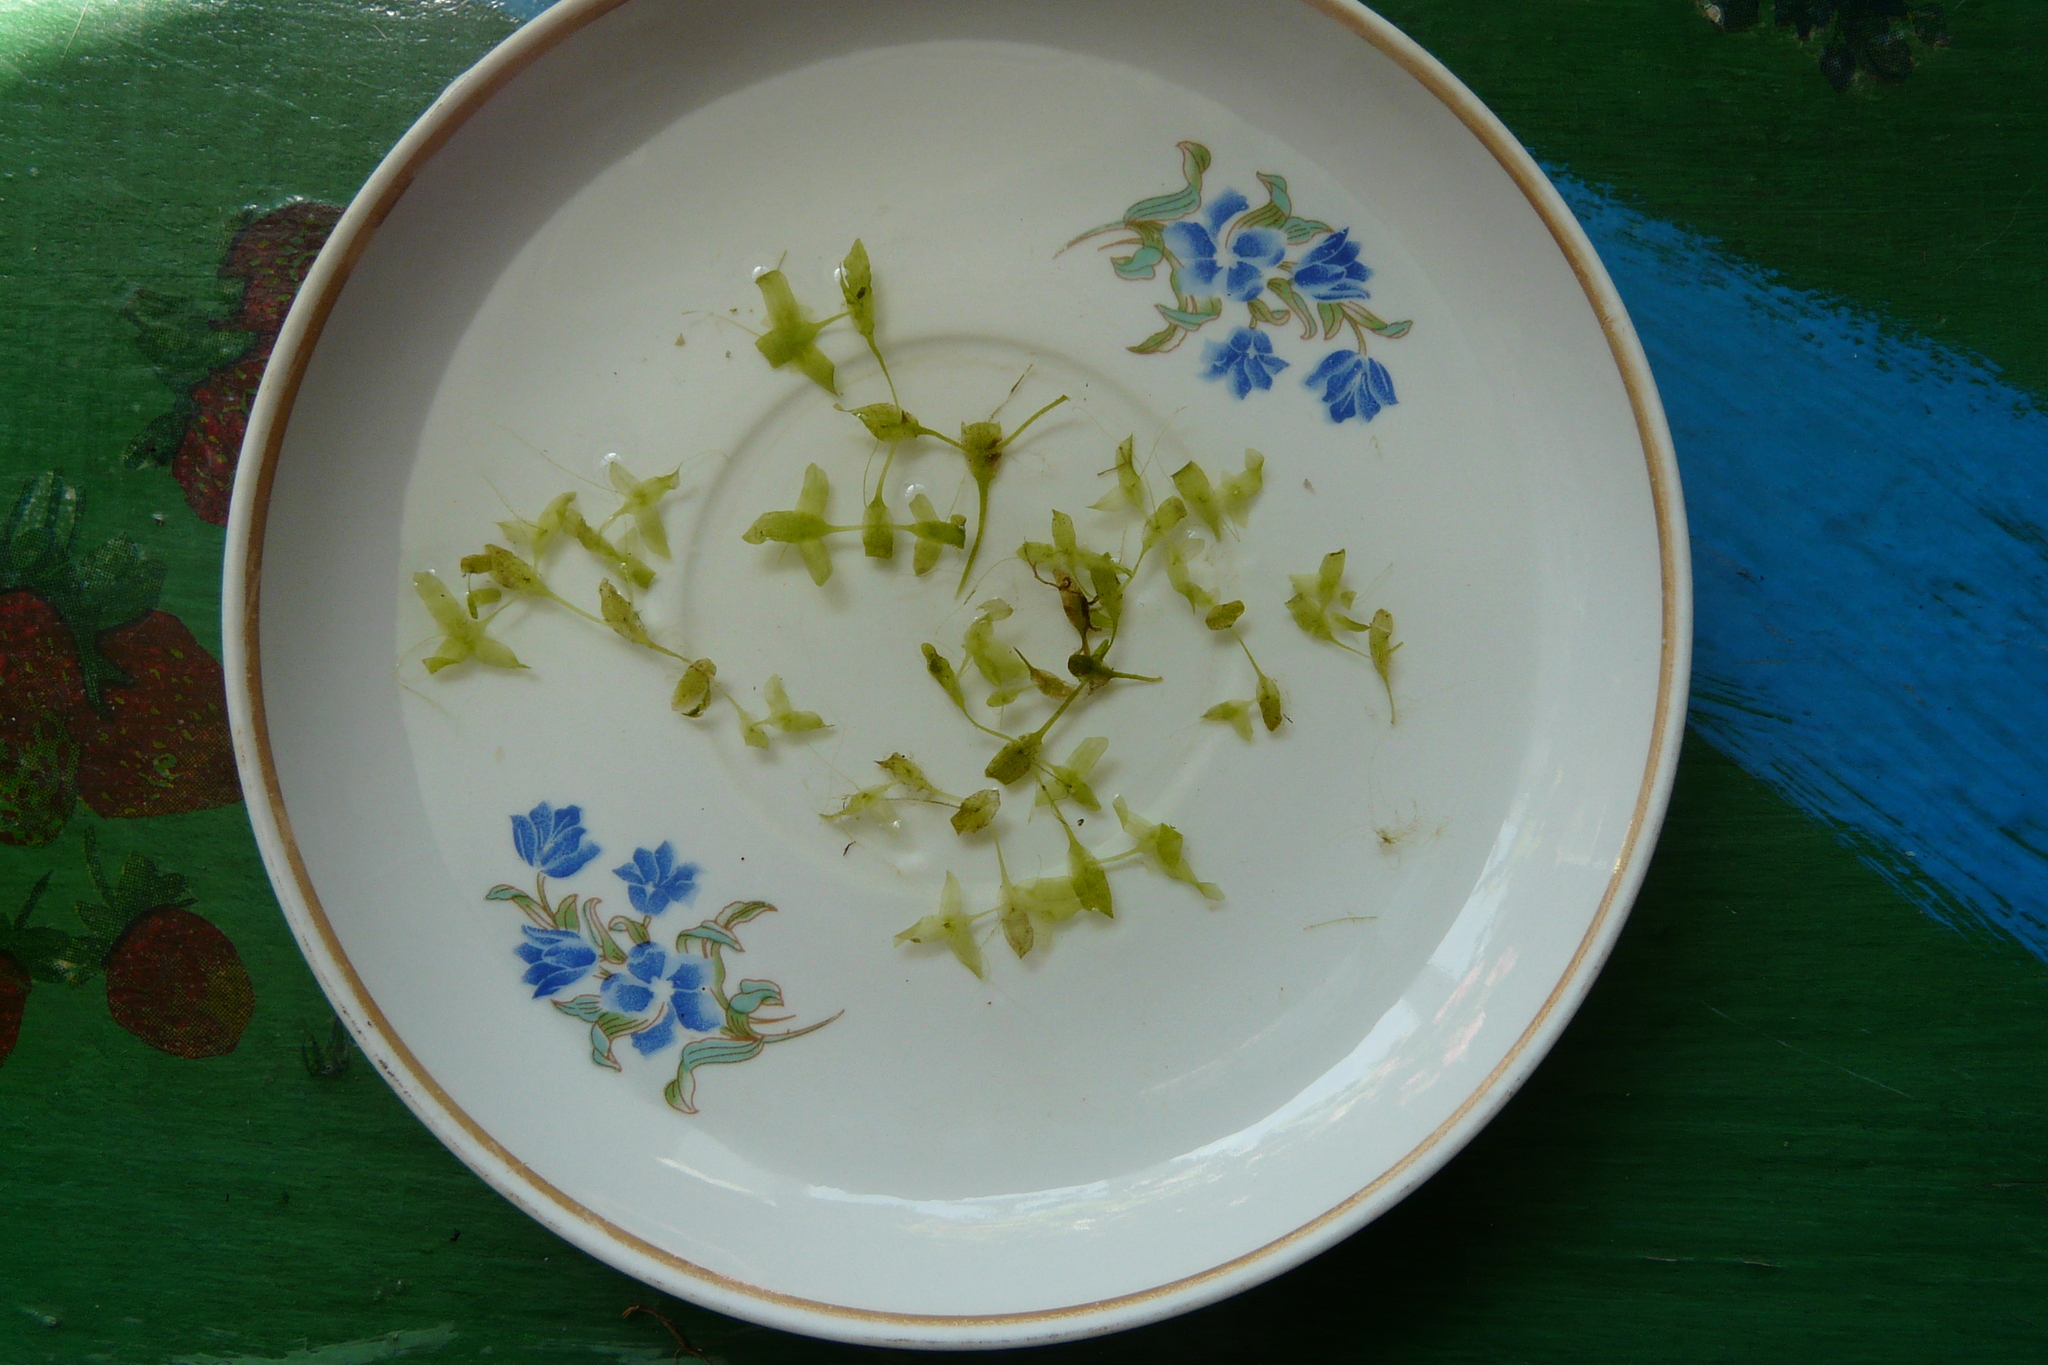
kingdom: Plantae
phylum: Tracheophyta
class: Liliopsida
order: Alismatales
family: Araceae
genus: Lemna
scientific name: Lemna trisulca
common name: Ivy-leaved duckweed
